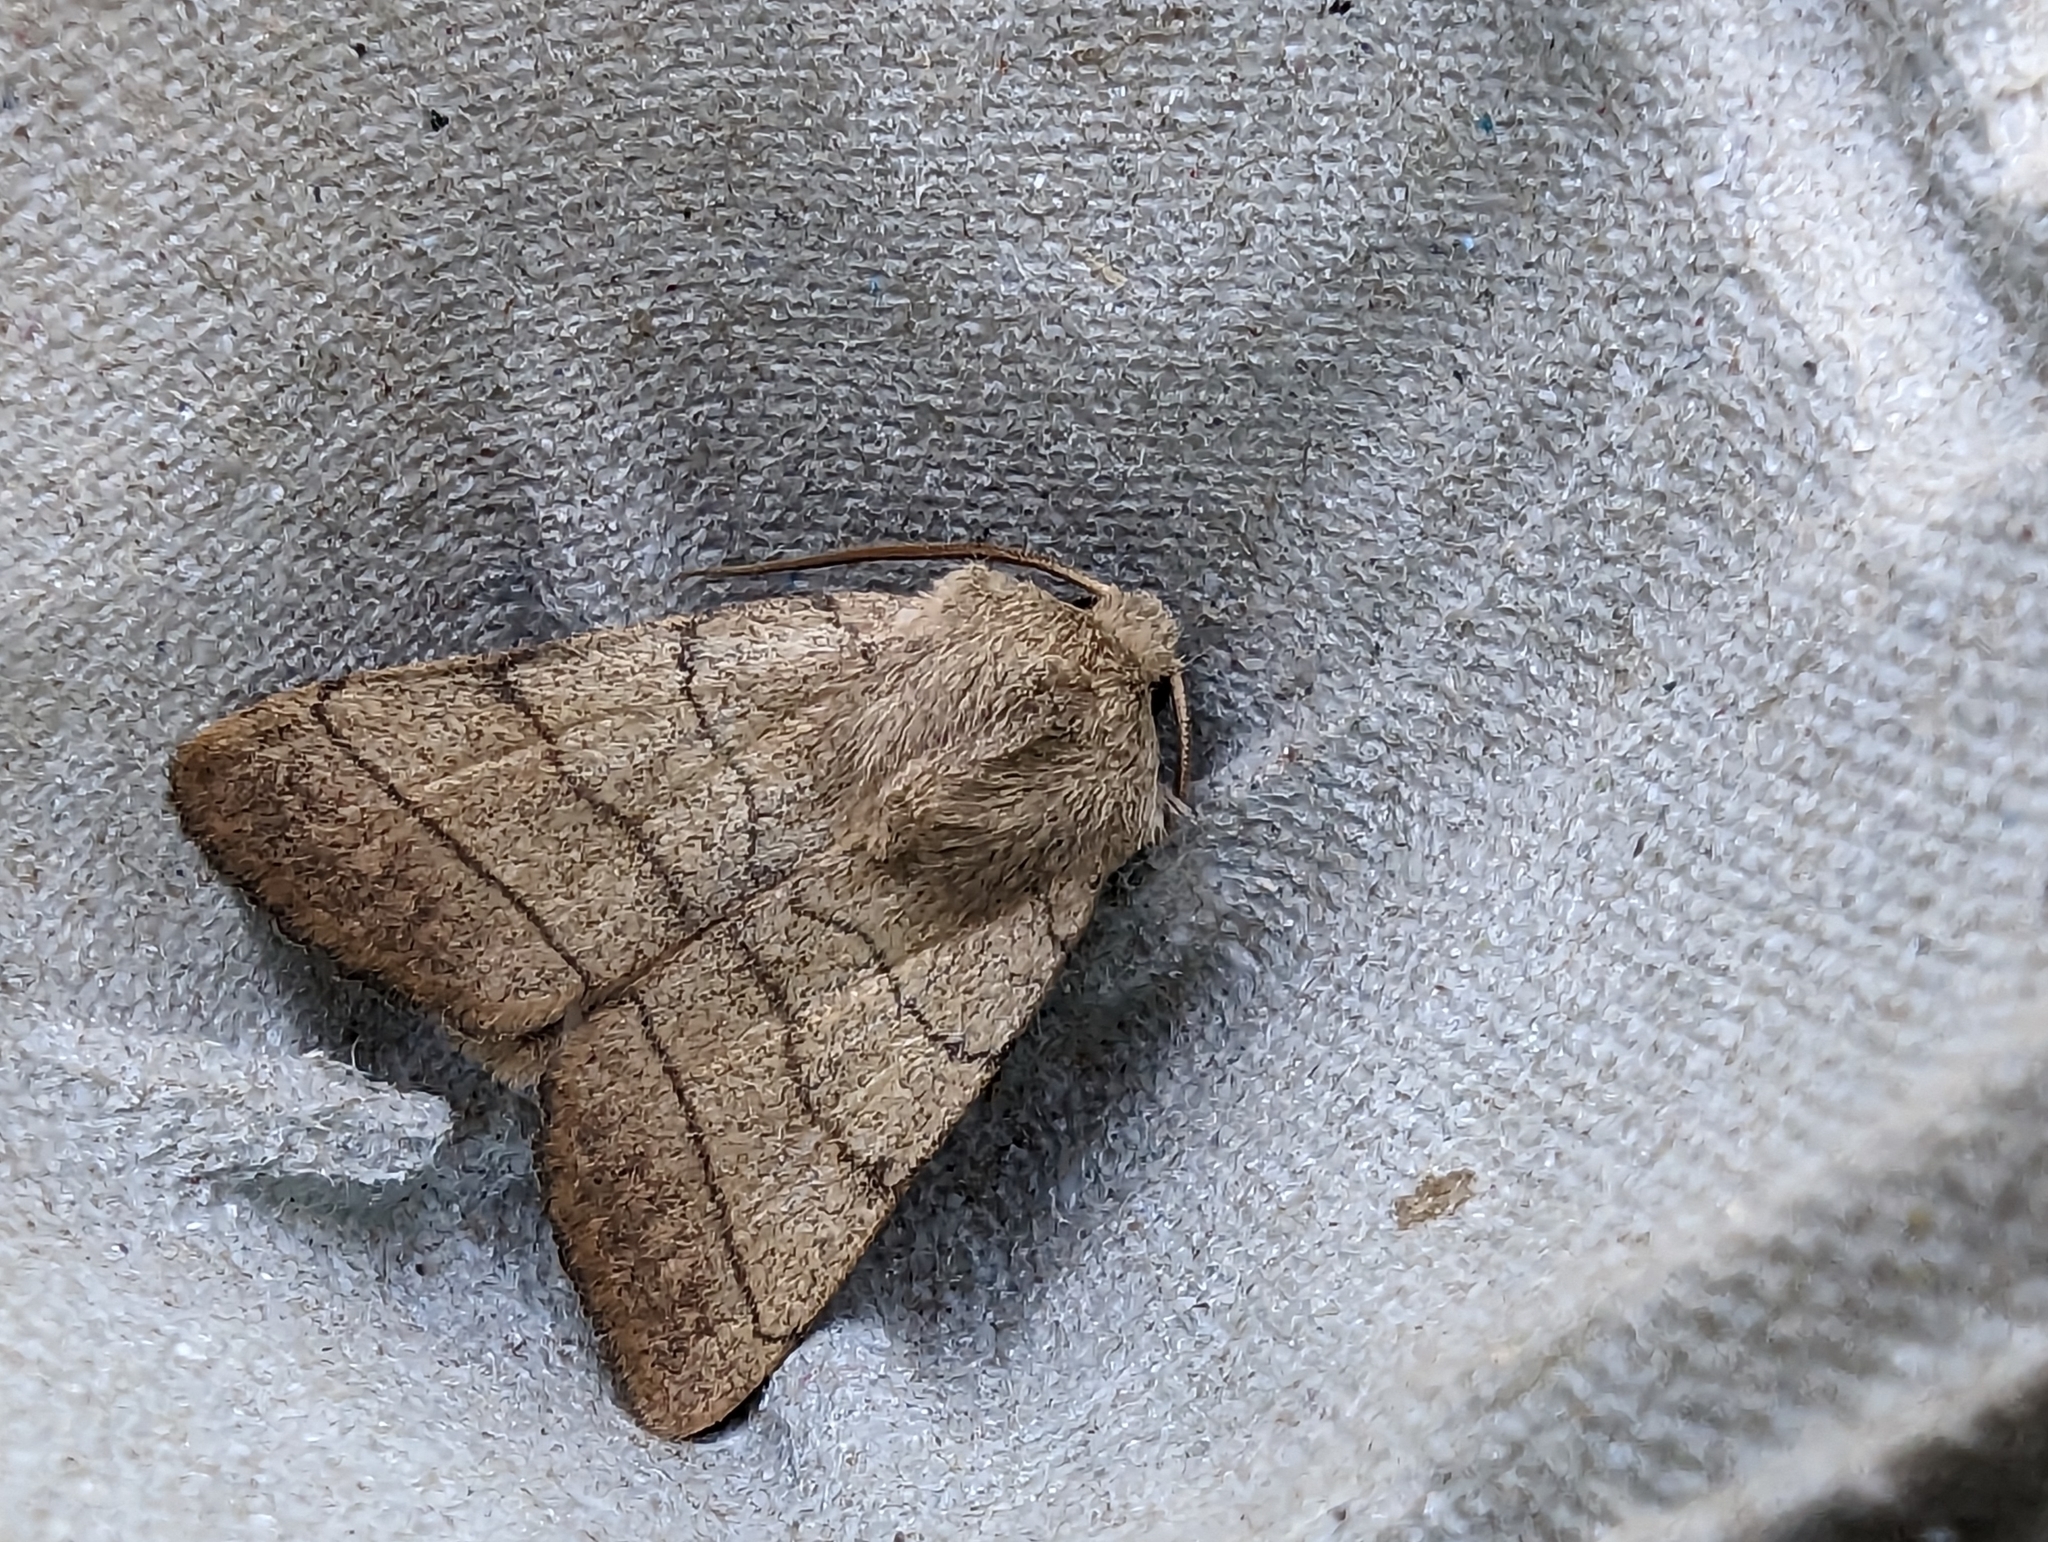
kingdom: Animalia
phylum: Arthropoda
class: Insecta
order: Lepidoptera
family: Noctuidae
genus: Charanyca
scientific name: Charanyca trigrammica
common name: Treble lines
